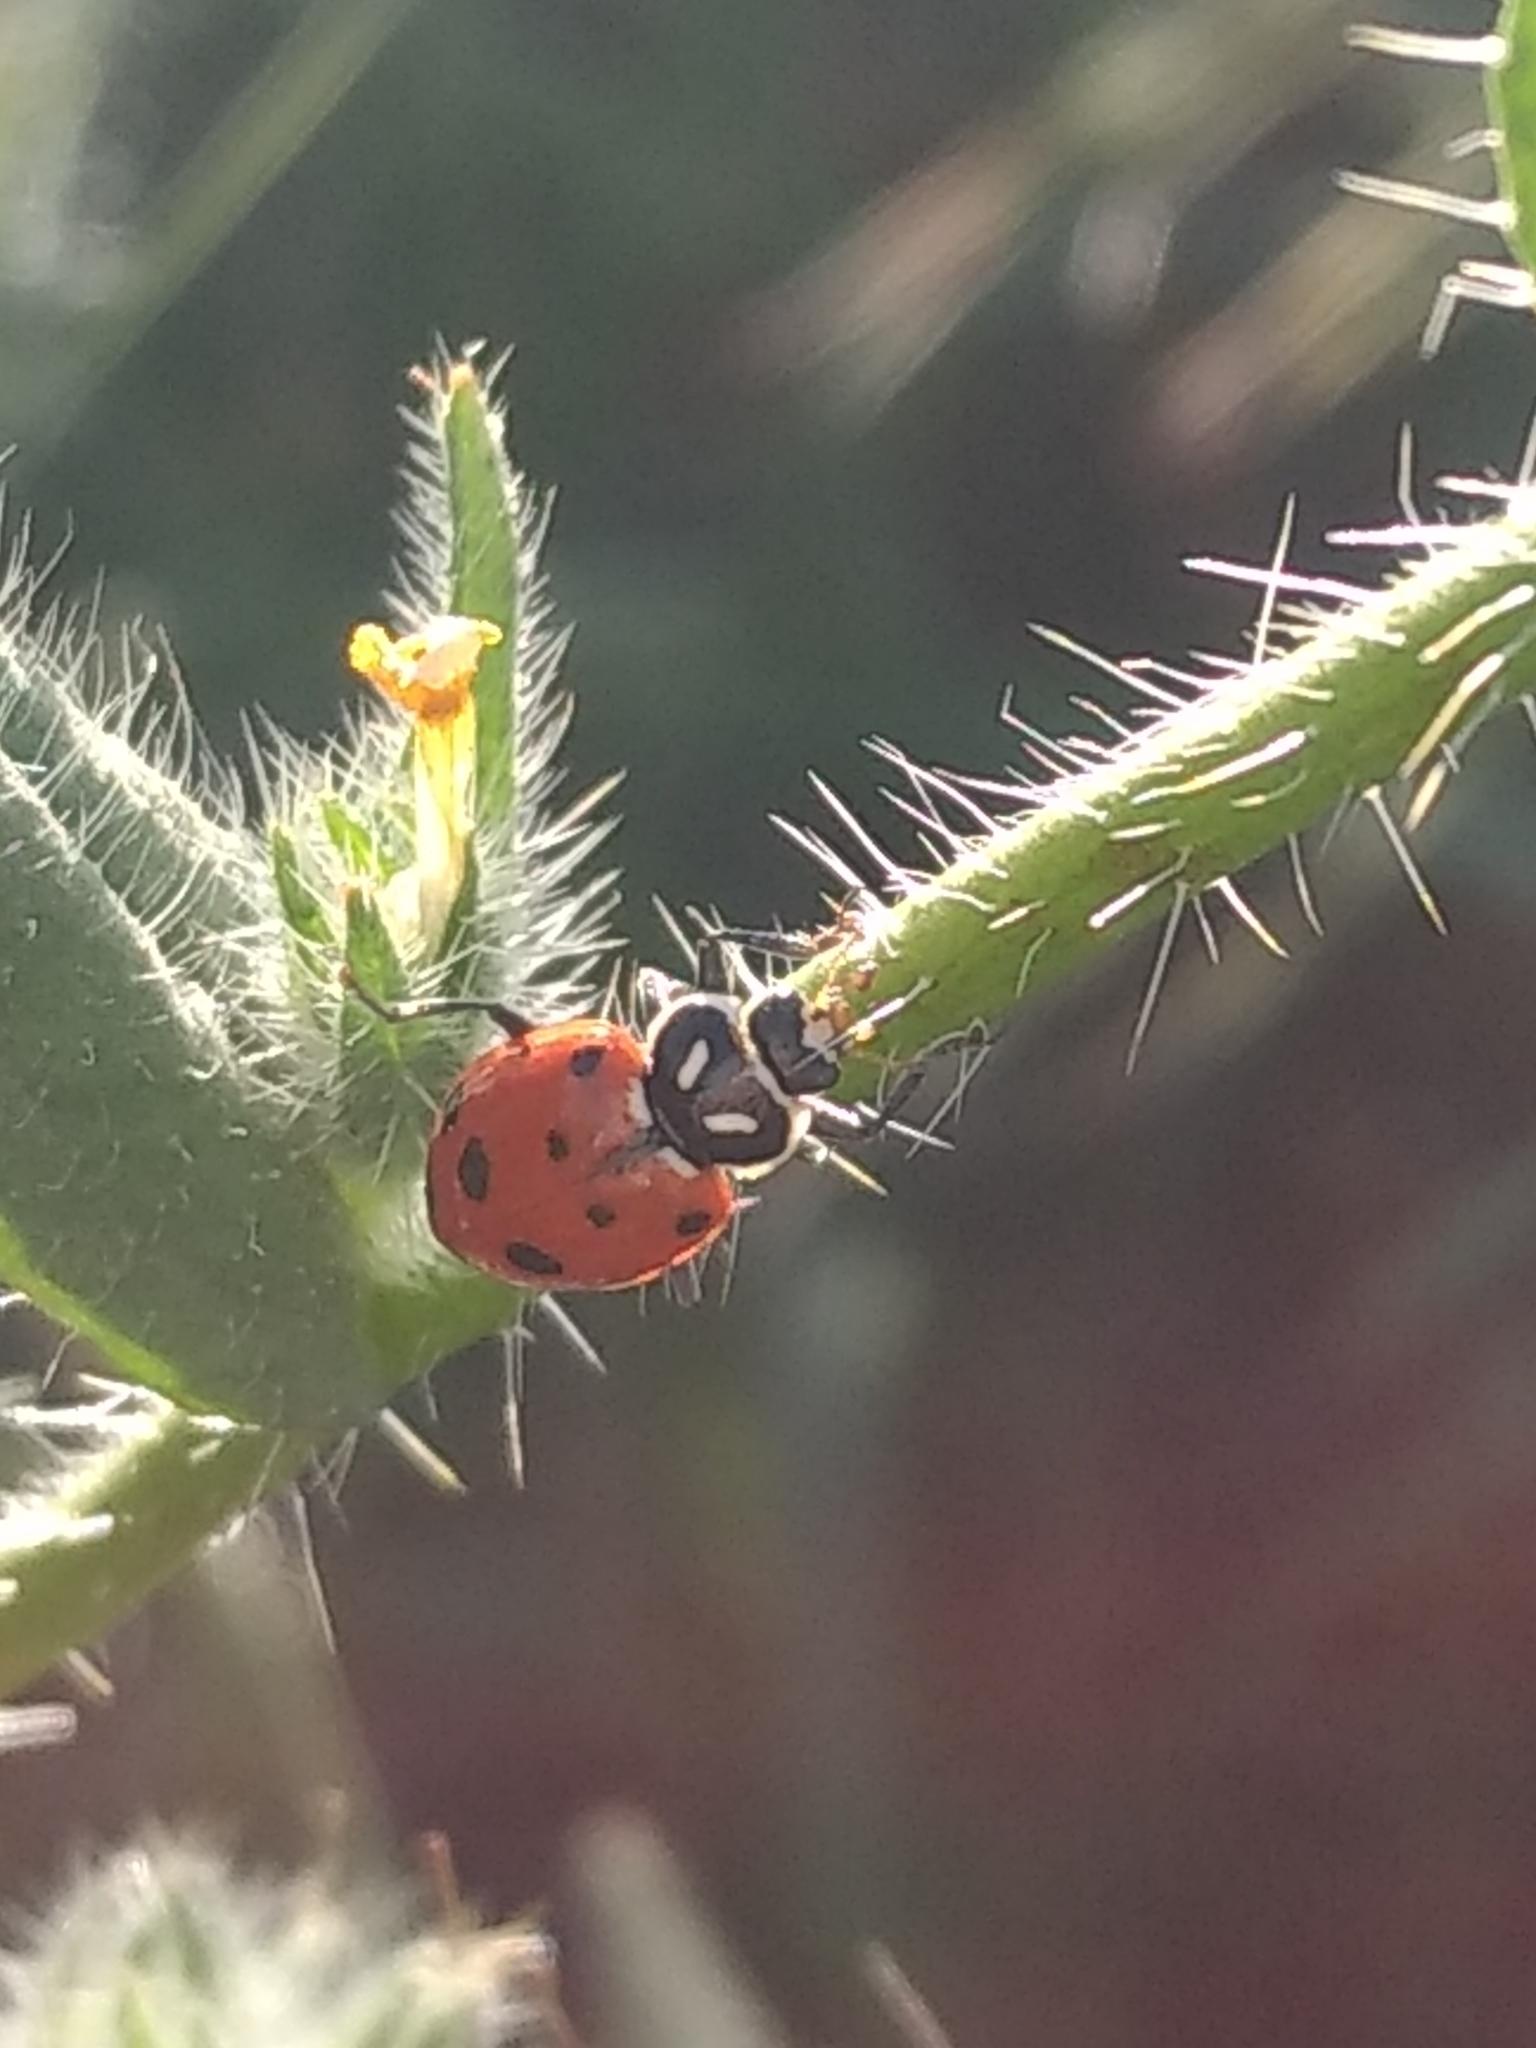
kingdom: Animalia
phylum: Arthropoda
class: Insecta
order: Coleoptera
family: Coccinellidae
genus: Hippodamia
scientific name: Hippodamia convergens
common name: Convergent lady beetle
